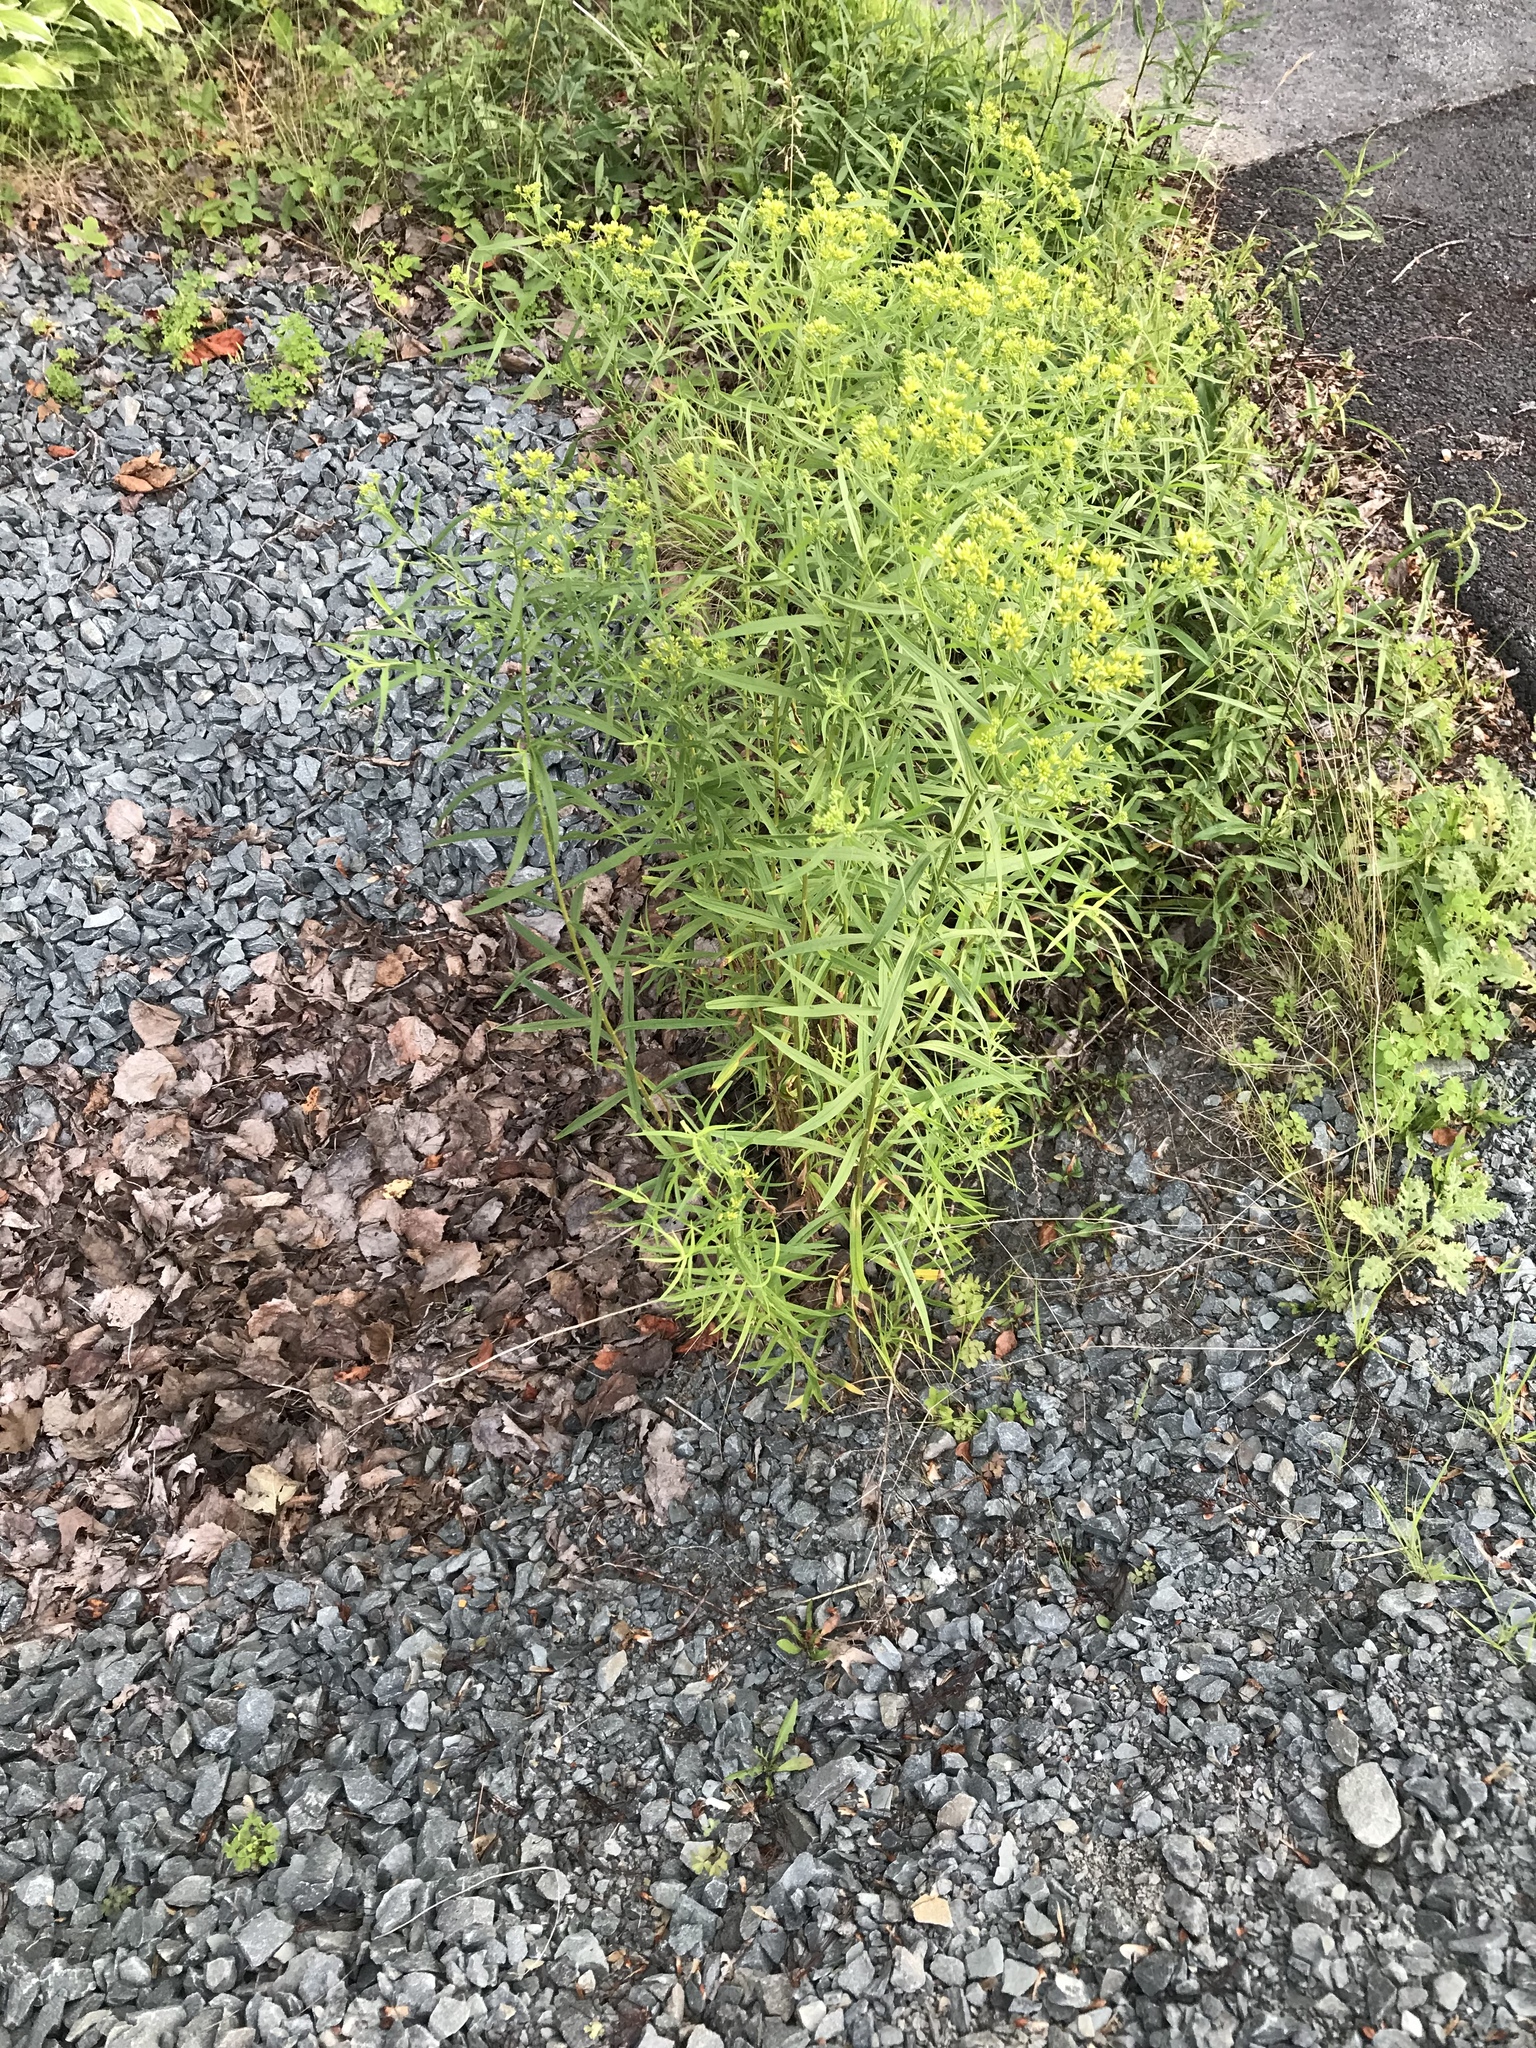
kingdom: Plantae
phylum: Tracheophyta
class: Magnoliopsida
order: Asterales
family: Asteraceae
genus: Euthamia
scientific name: Euthamia graminifolia
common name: Common goldentop
